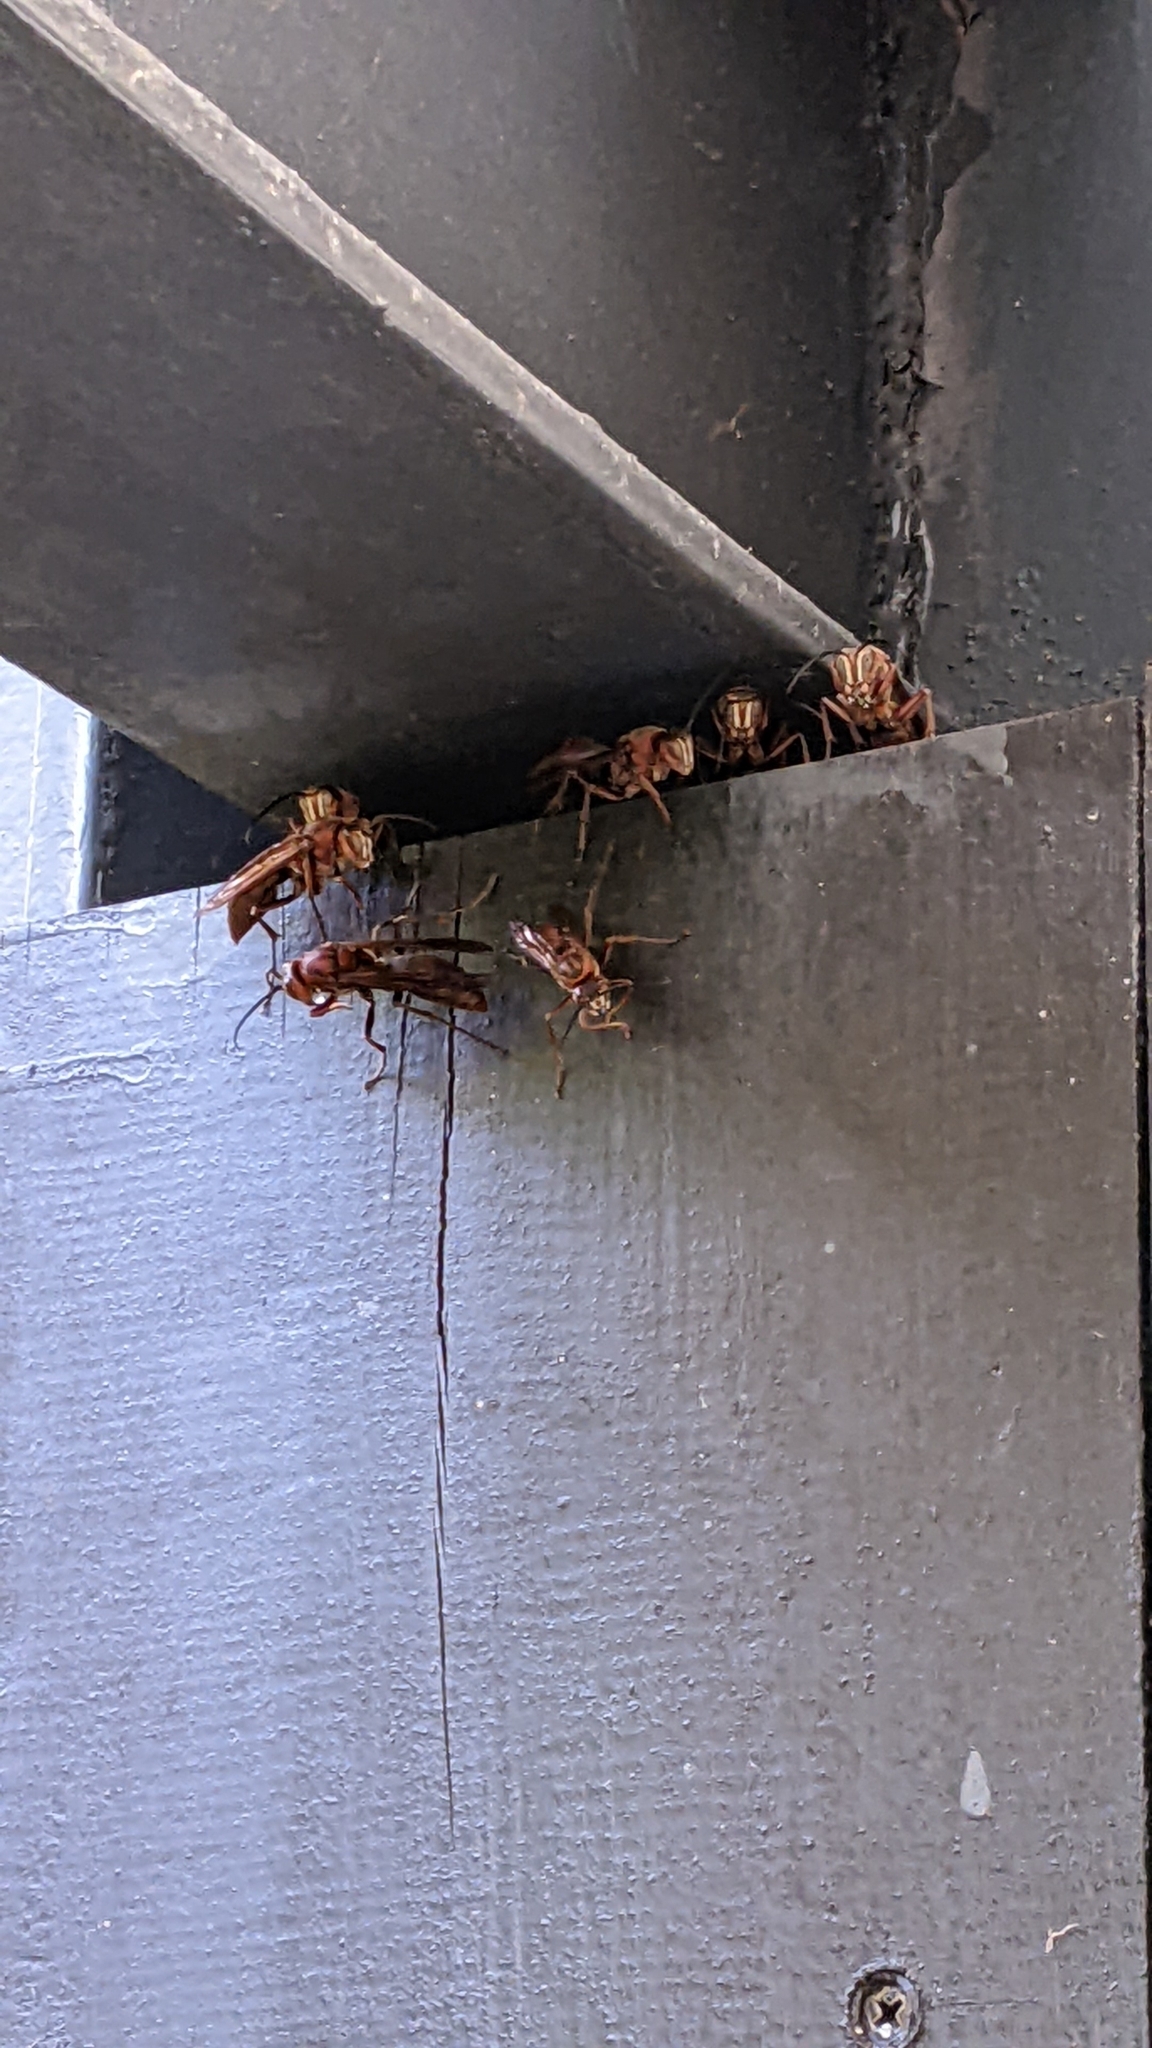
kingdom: Animalia
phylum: Arthropoda
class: Insecta
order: Hymenoptera
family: Eumenidae
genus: Polistes
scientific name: Polistes tenebricosus
